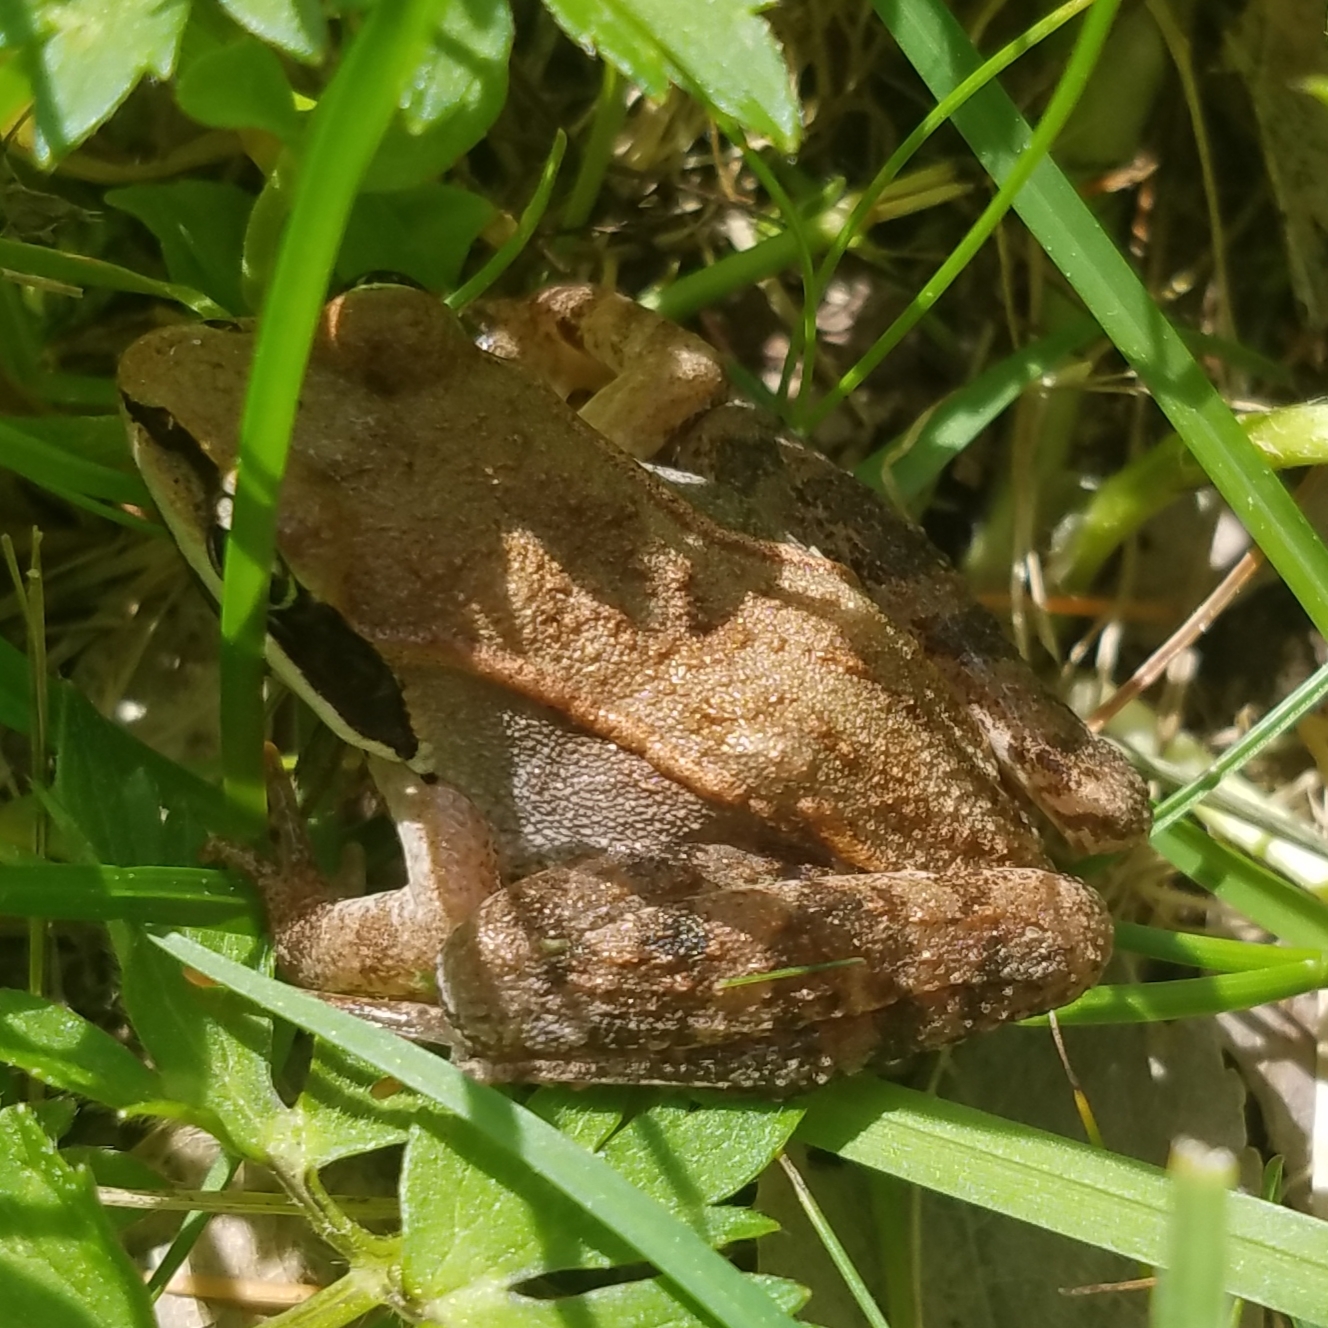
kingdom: Animalia
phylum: Chordata
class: Amphibia
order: Anura
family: Ranidae
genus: Lithobates
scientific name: Lithobates sylvaticus
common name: Wood frog
